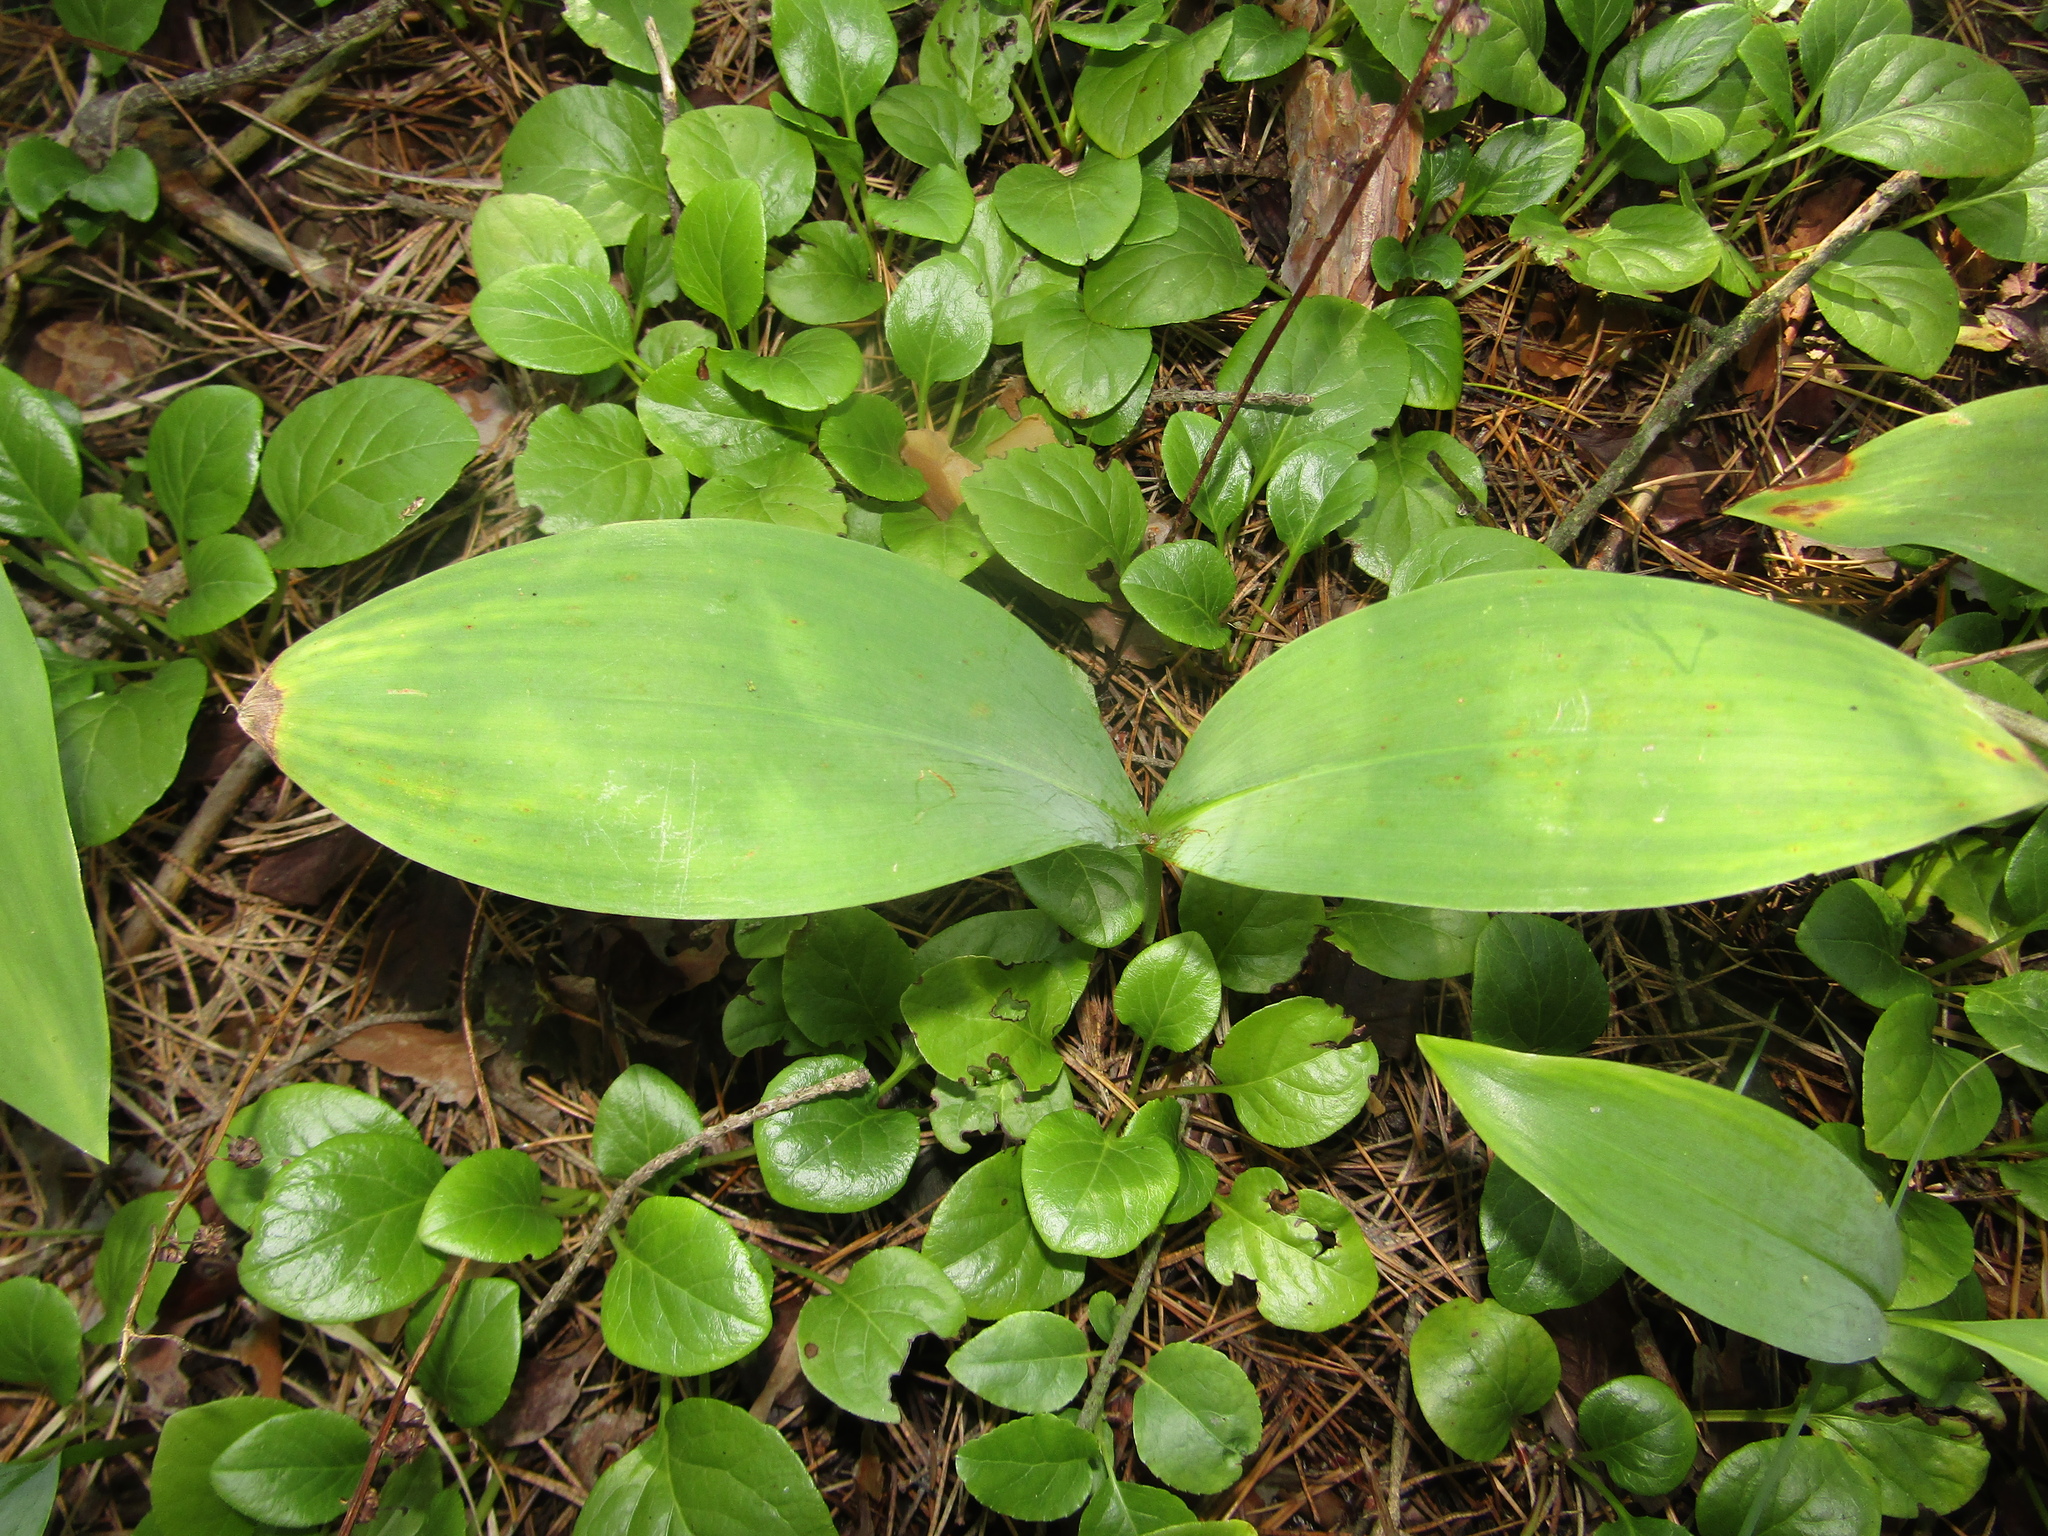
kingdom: Plantae
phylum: Tracheophyta
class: Liliopsida
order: Asparagales
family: Asparagaceae
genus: Convallaria
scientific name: Convallaria majalis
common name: Lily-of-the-valley
